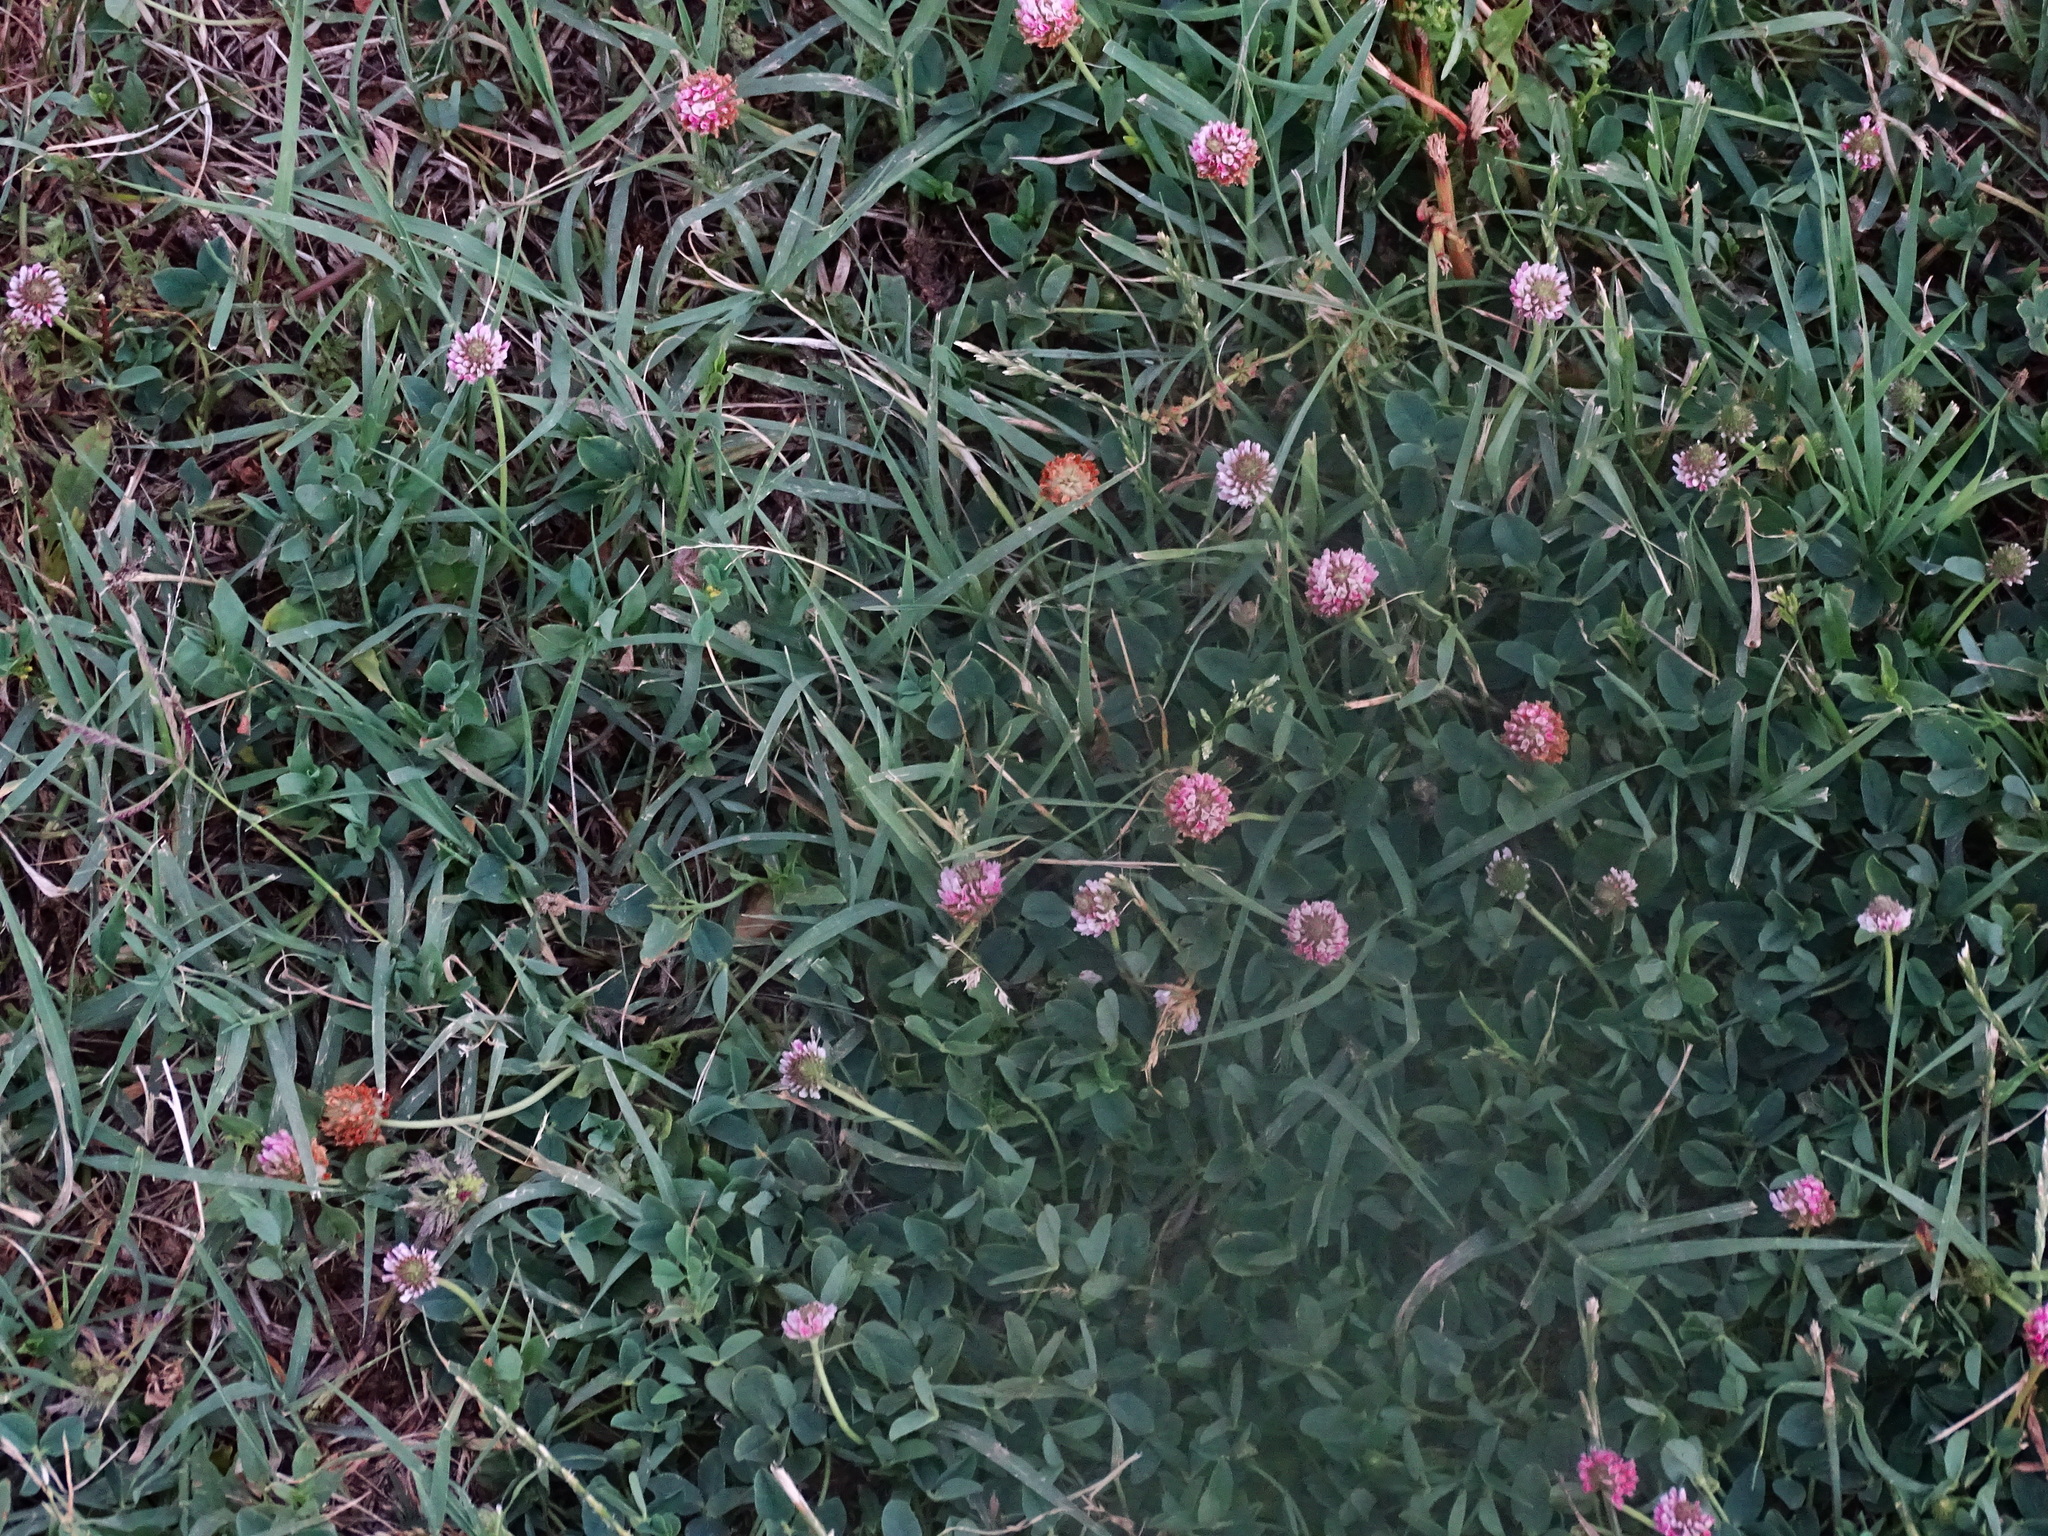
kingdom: Plantae
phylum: Tracheophyta
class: Magnoliopsida
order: Fabales
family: Fabaceae
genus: Trifolium
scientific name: Trifolium fragiferum
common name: Strawberry clover
